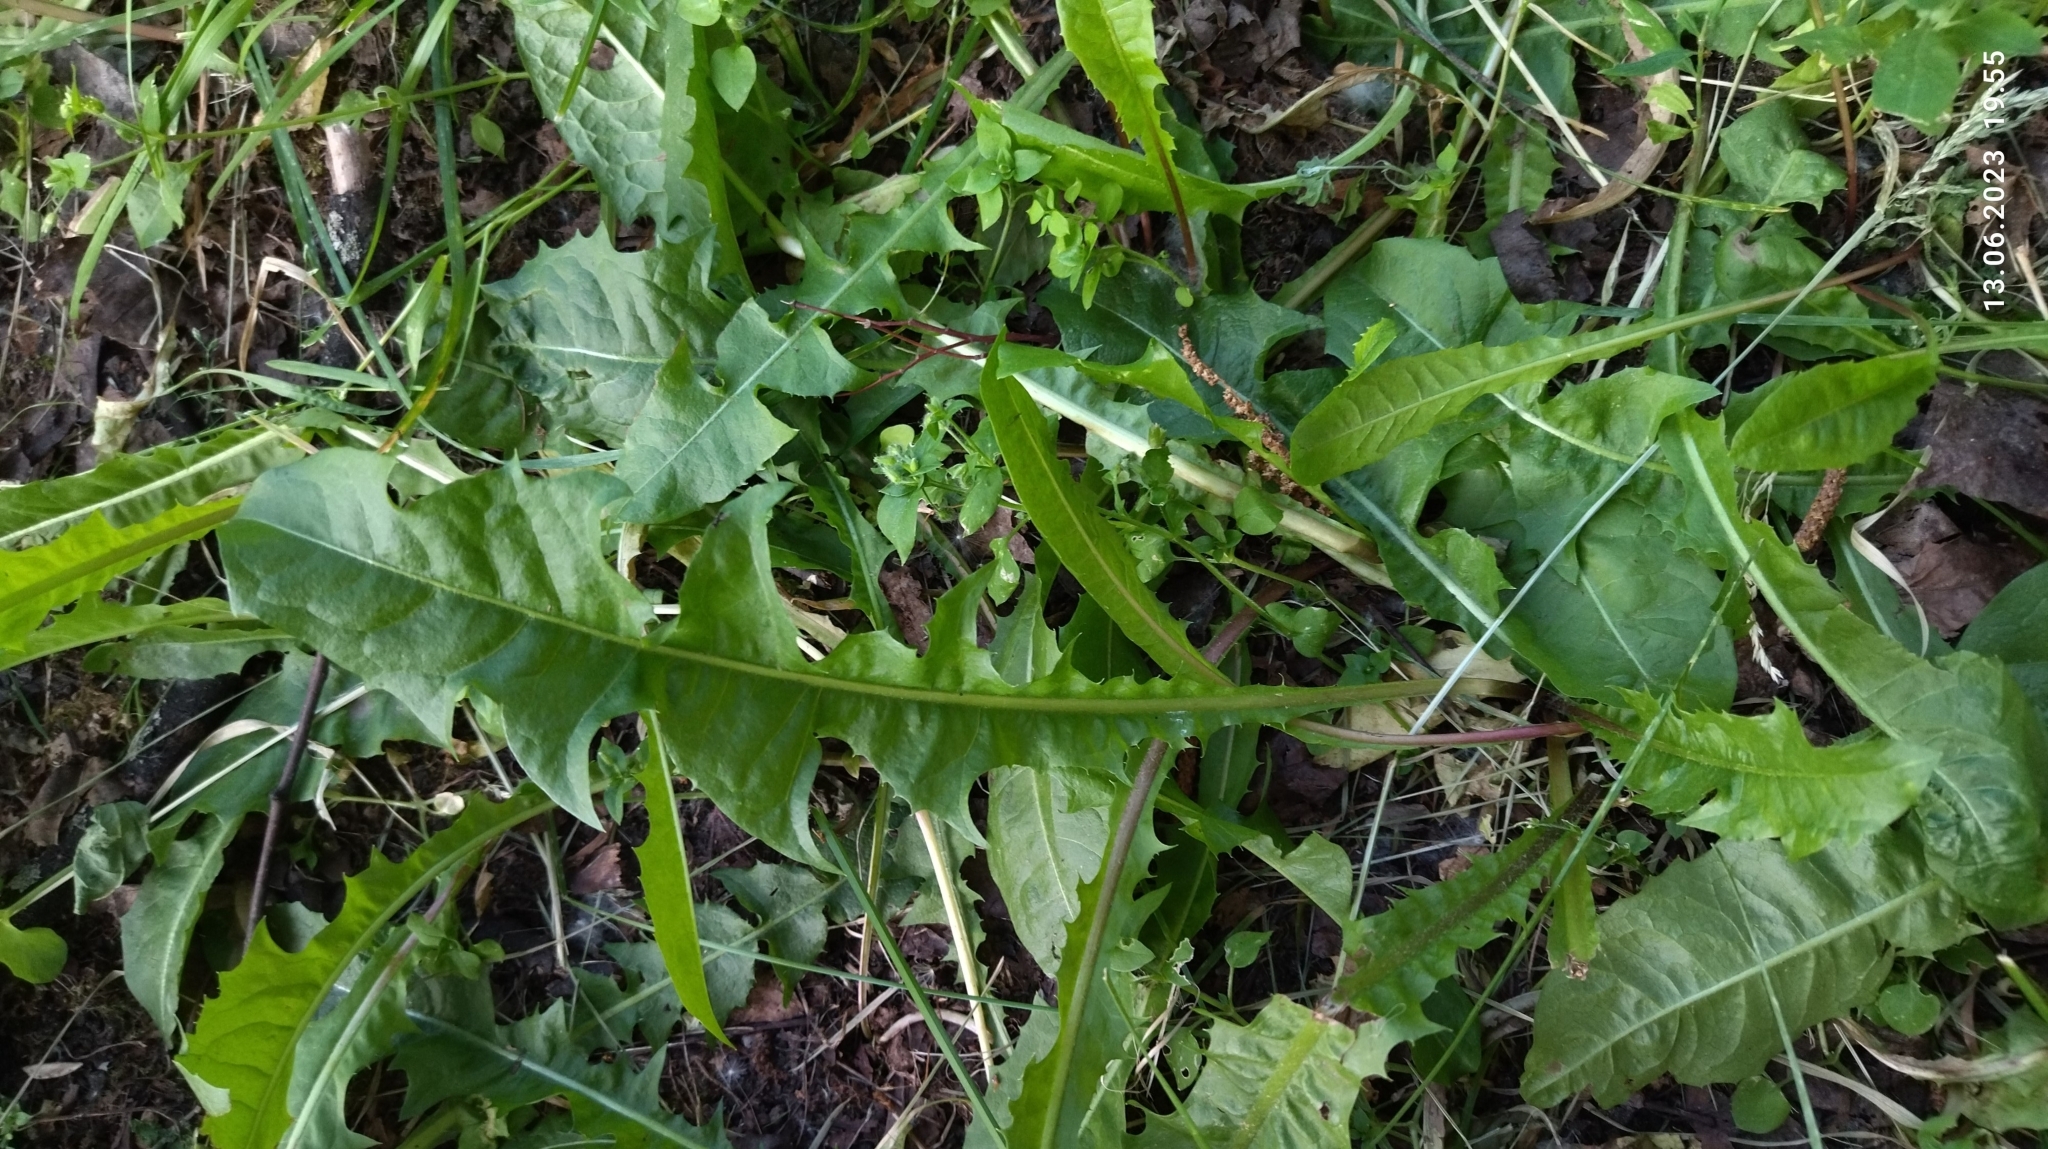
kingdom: Plantae
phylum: Tracheophyta
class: Magnoliopsida
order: Asterales
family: Asteraceae
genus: Taraxacum
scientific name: Taraxacum officinale
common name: Common dandelion
